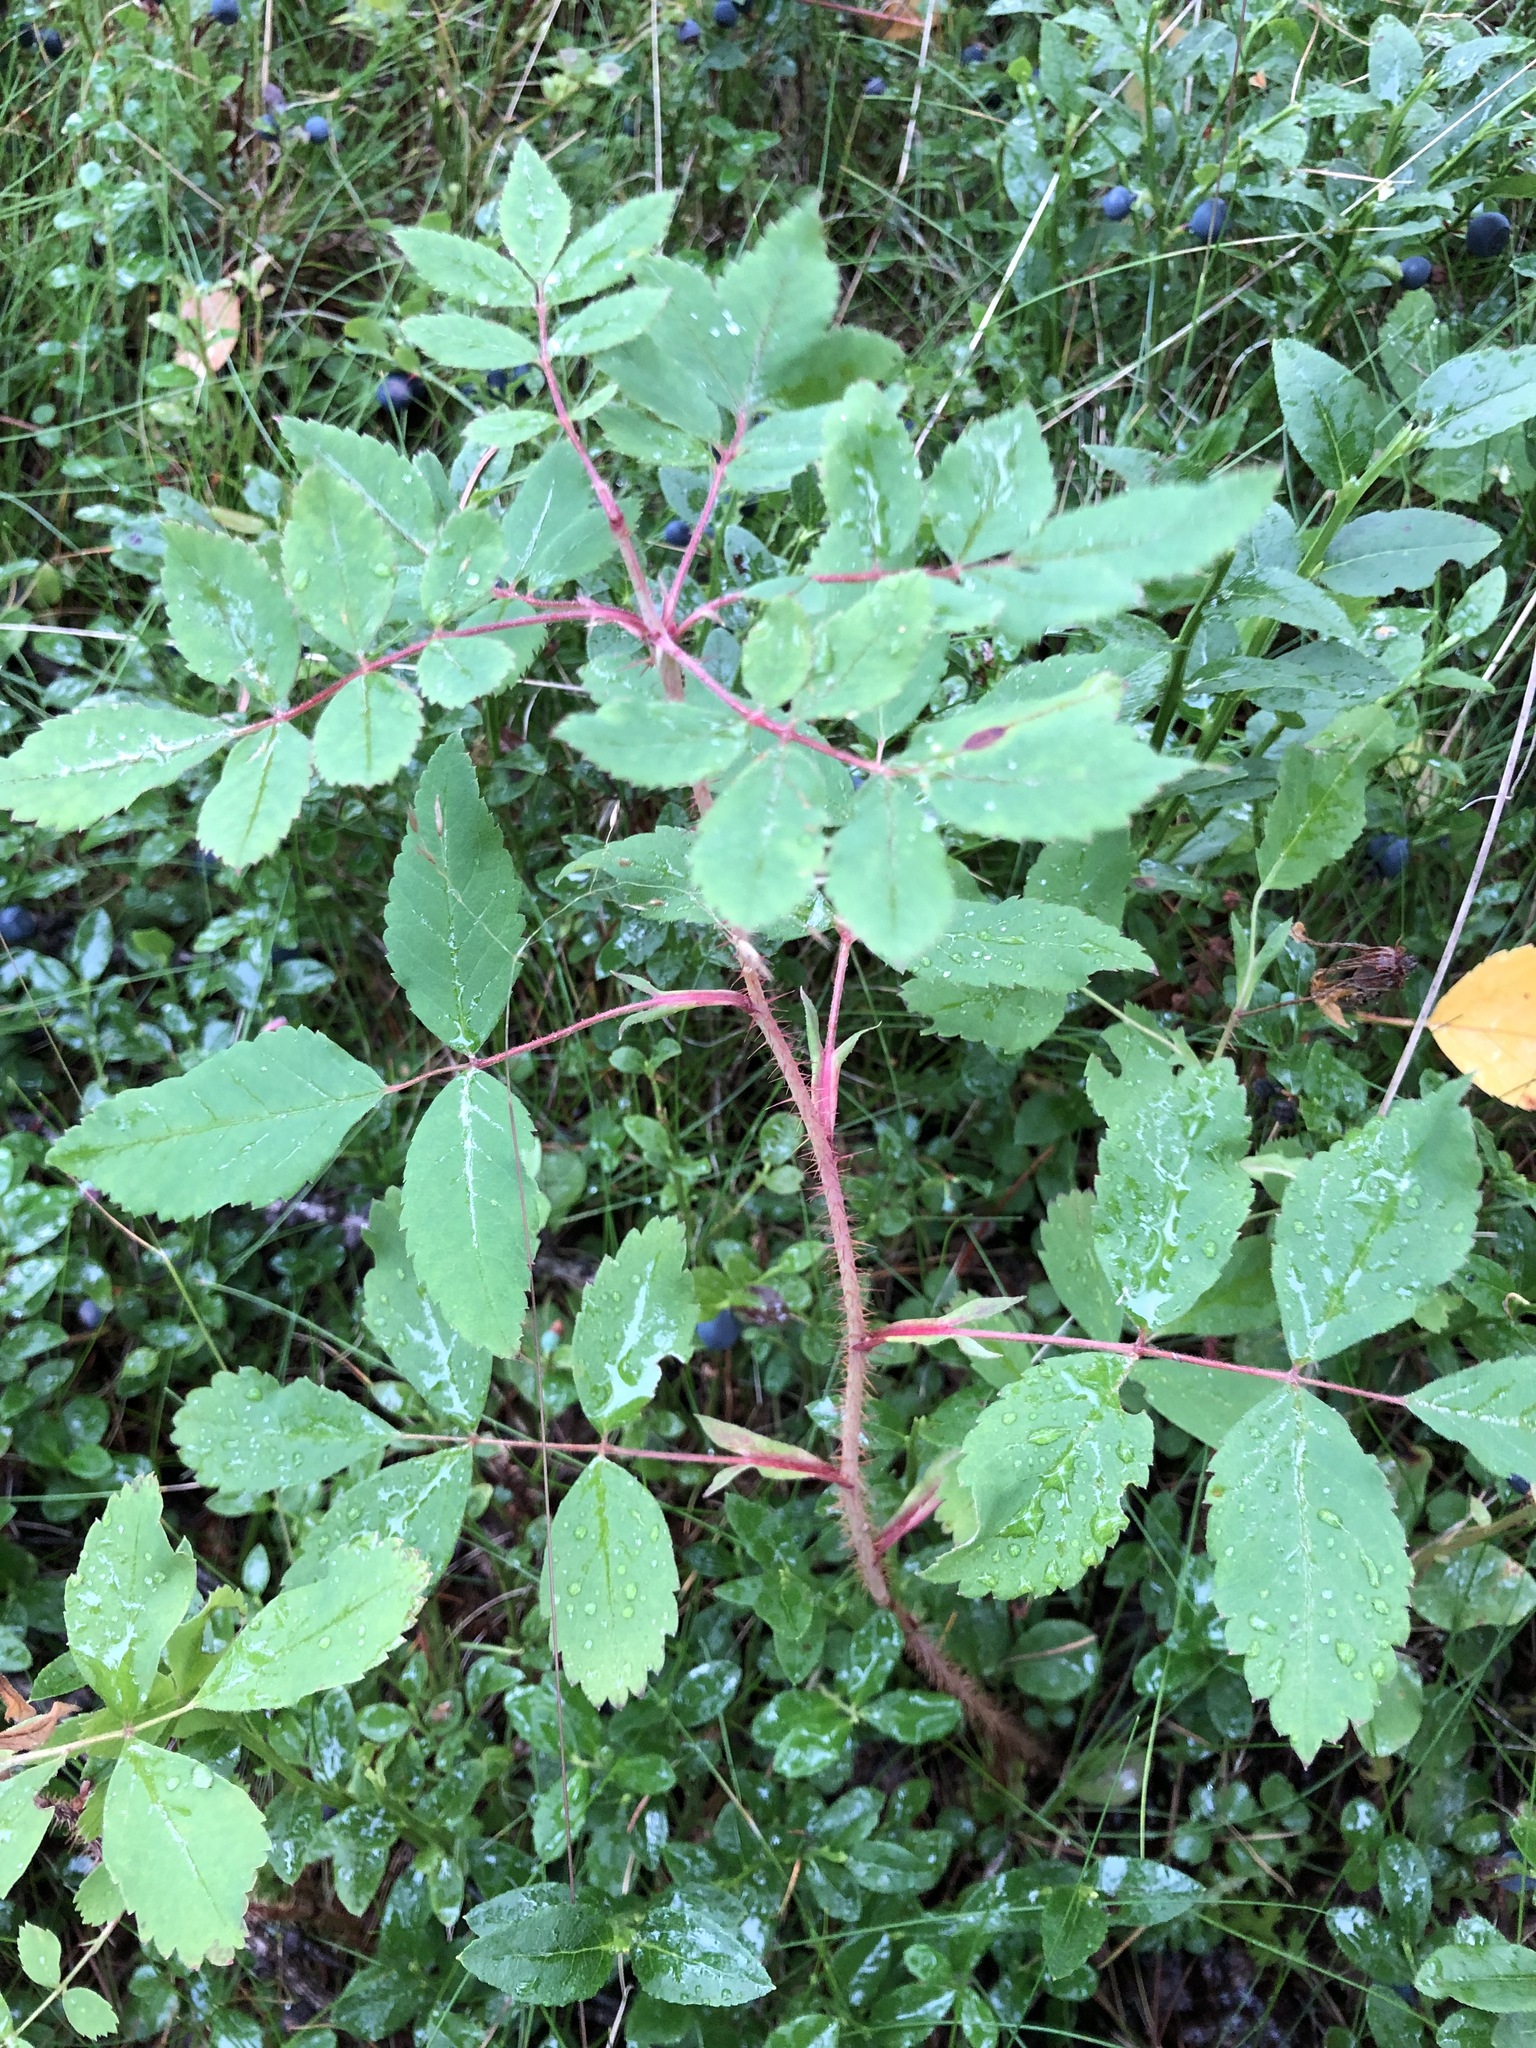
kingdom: Plantae
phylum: Tracheophyta
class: Magnoliopsida
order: Rosales
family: Rosaceae
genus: Rosa
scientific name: Rosa acicularis
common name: Prickly rose
